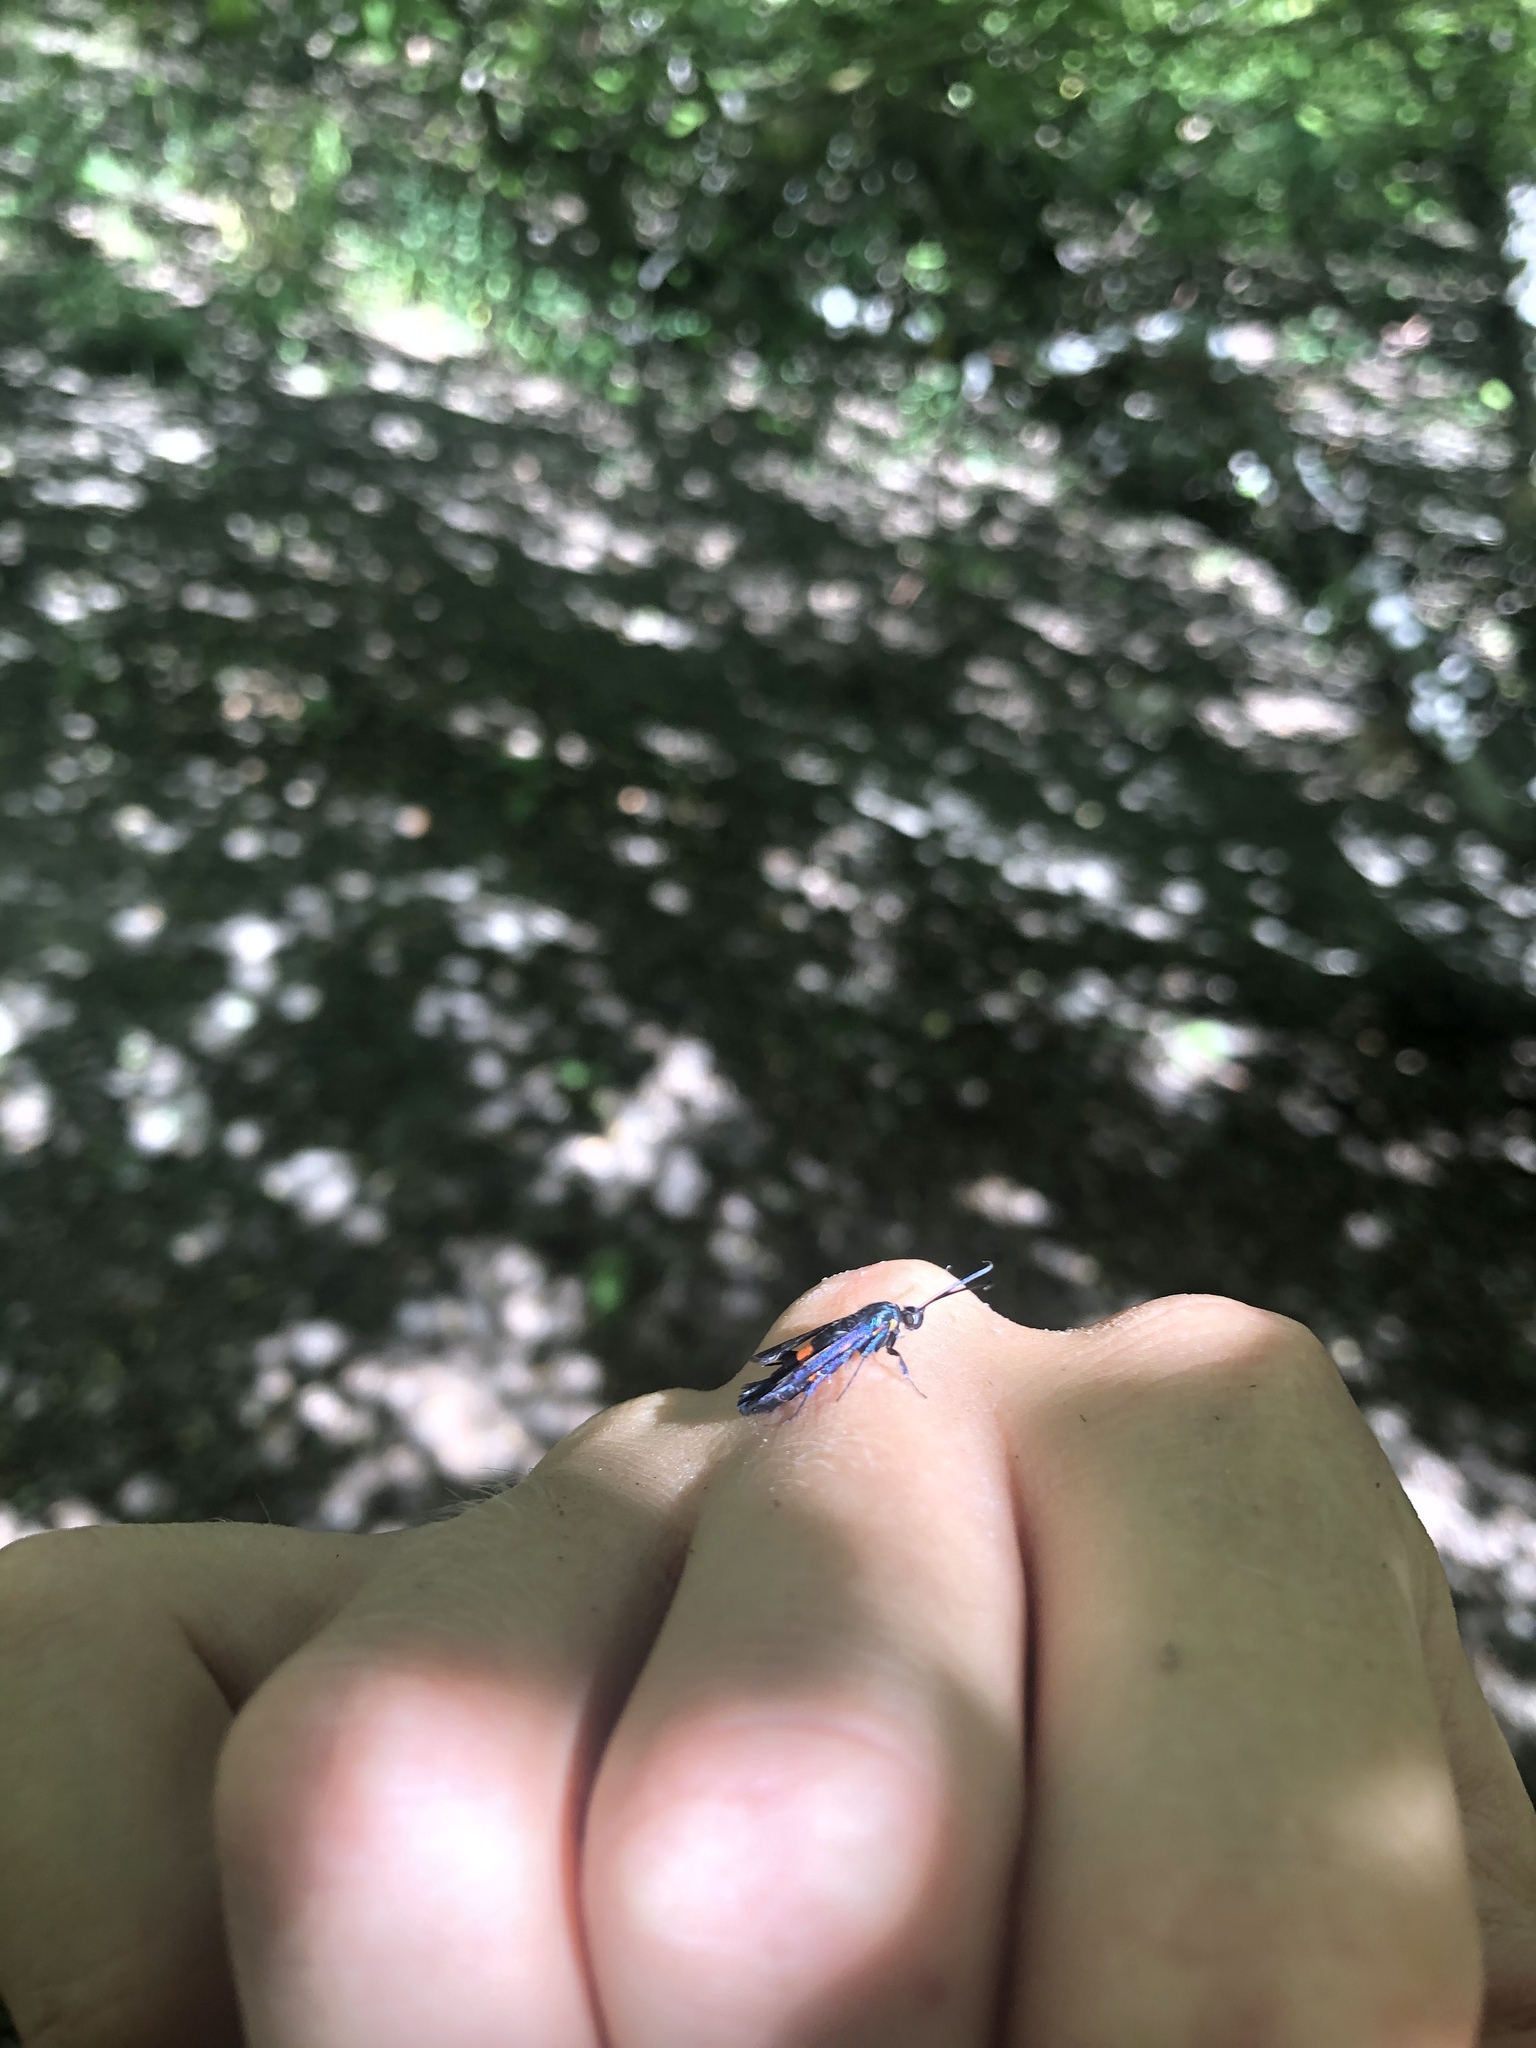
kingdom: Animalia
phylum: Arthropoda
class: Insecta
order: Lepidoptera
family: Sesiidae
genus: Synanthedon
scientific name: Synanthedon myopaeformis
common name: Red-belted clearwing
